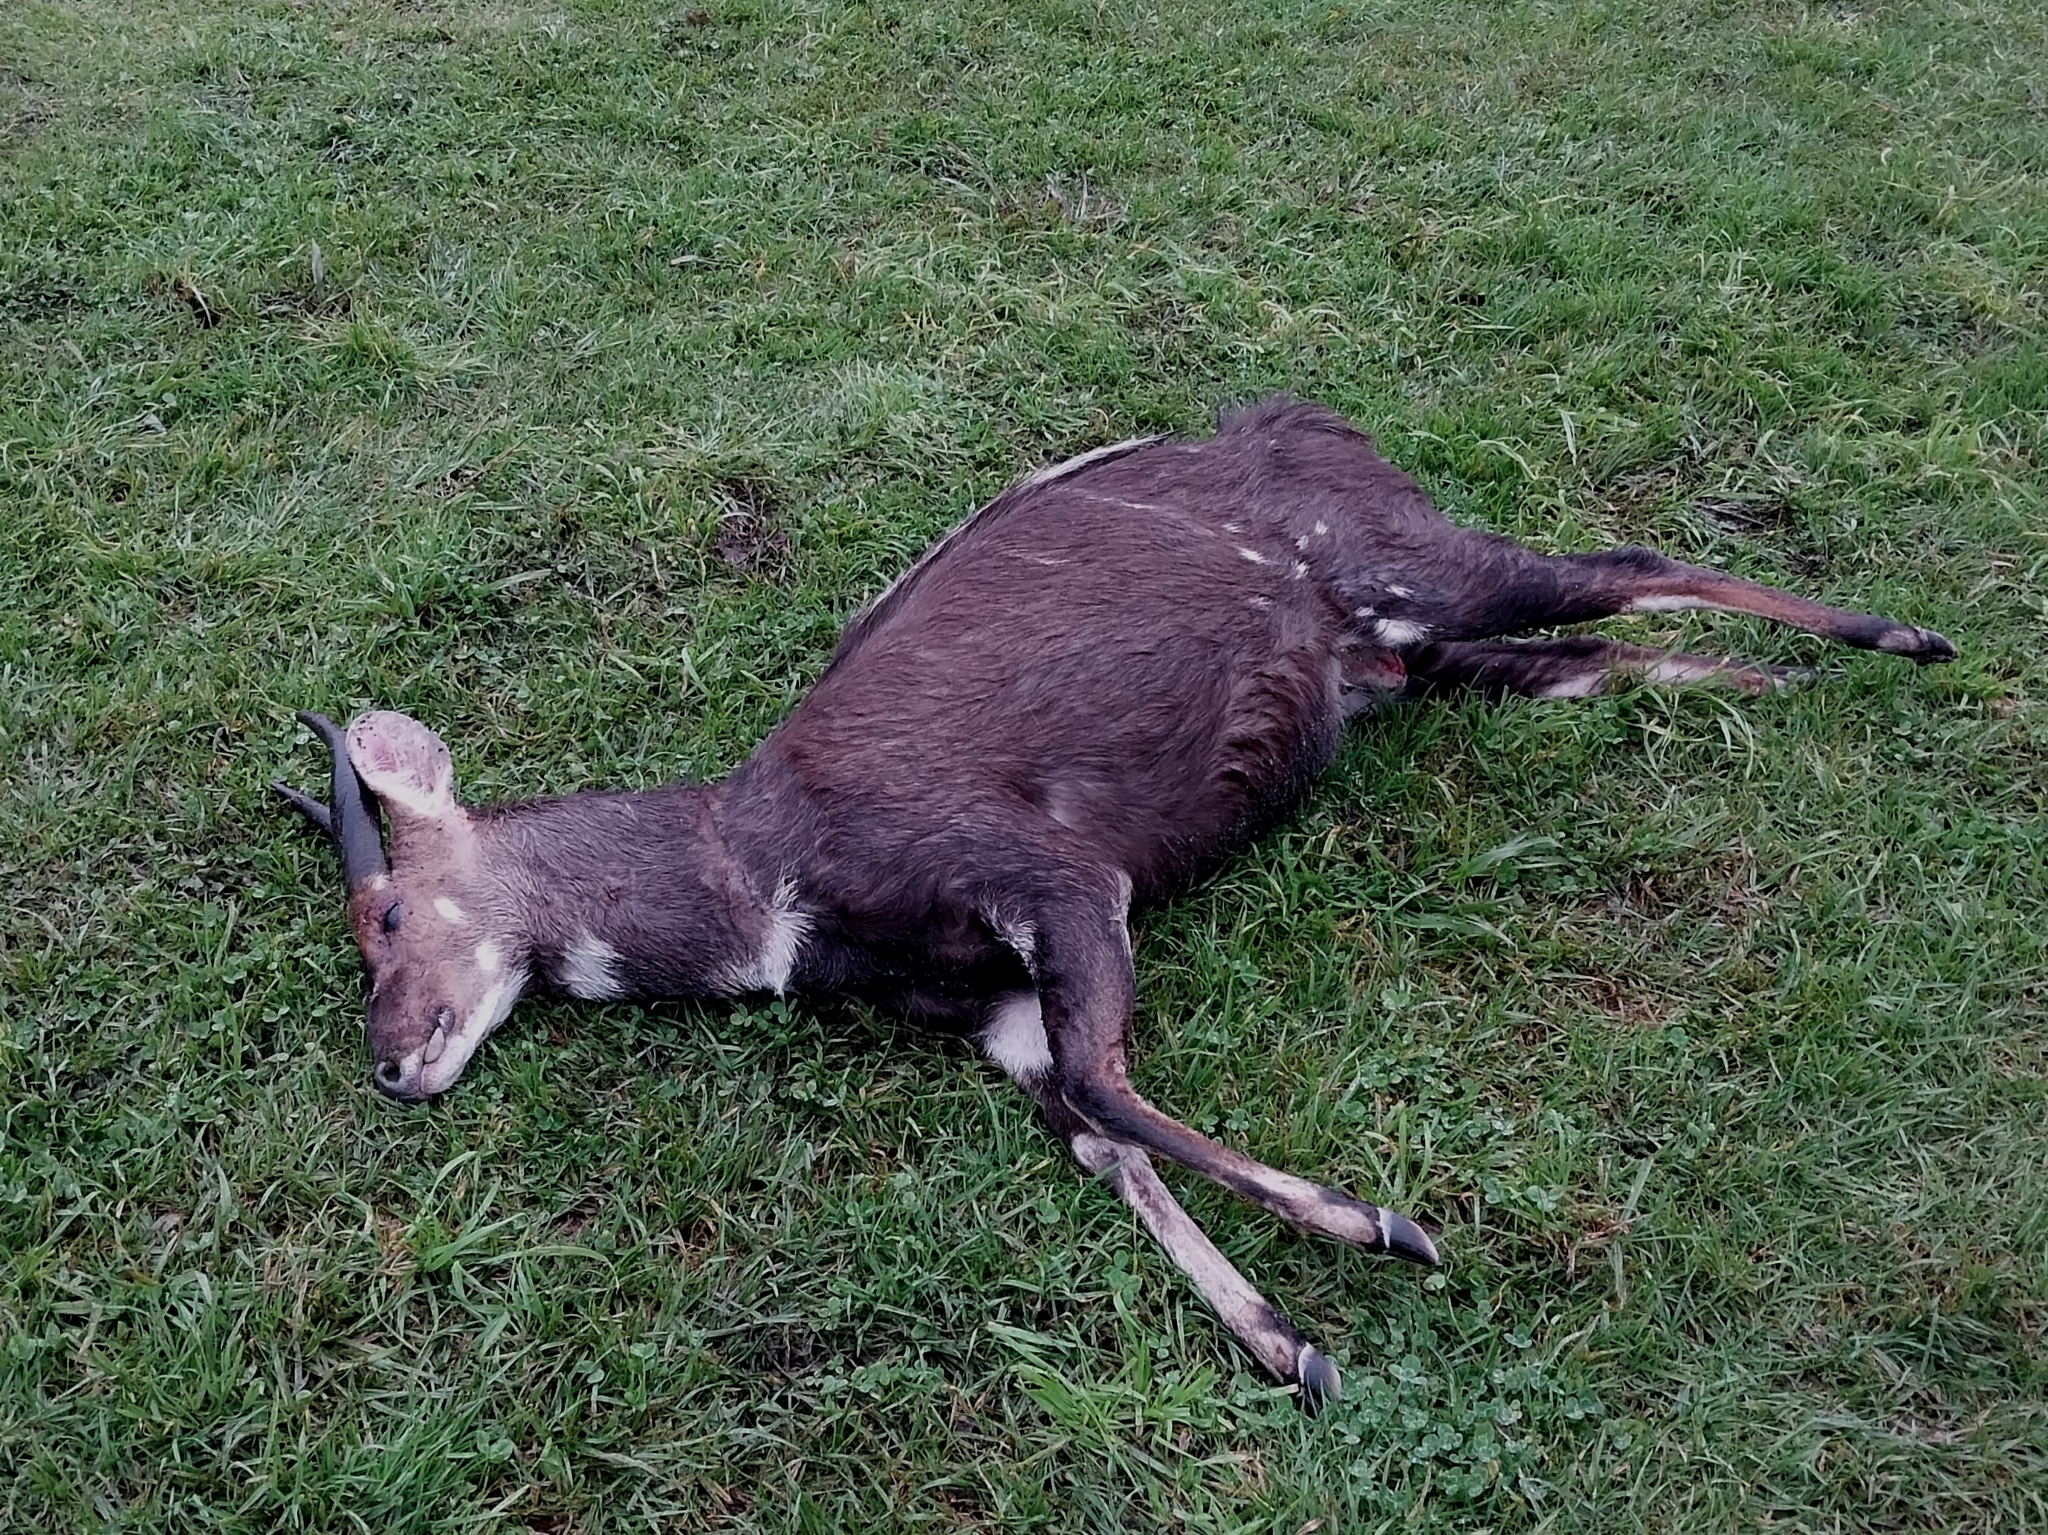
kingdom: Animalia
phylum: Chordata
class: Mammalia
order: Artiodactyla
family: Bovidae
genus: Tragelaphus
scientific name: Tragelaphus scriptus
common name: Bushbuck
